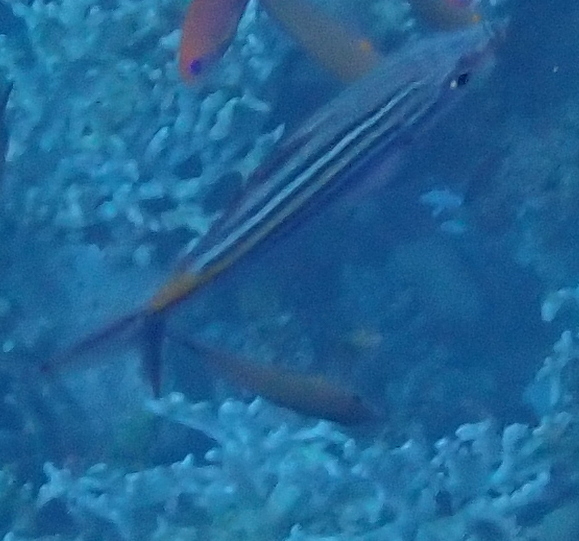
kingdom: Animalia
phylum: Chordata
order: Perciformes
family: Caesionidae
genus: Caesio
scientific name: Caesio striata
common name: Striated fusilier
